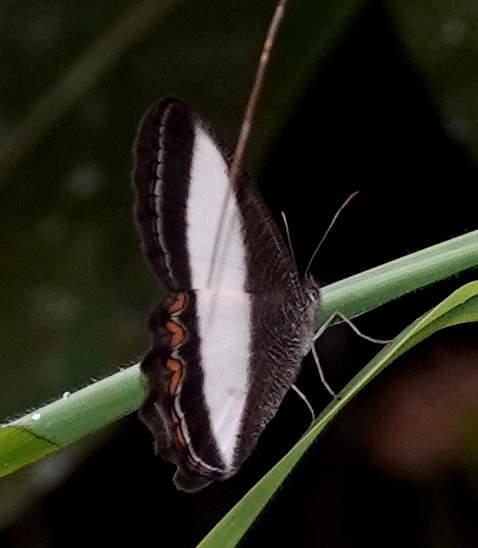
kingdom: Animalia
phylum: Arthropoda
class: Insecta
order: Lepidoptera
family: Nymphalidae
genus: Oressinoma
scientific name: Oressinoma typhla
